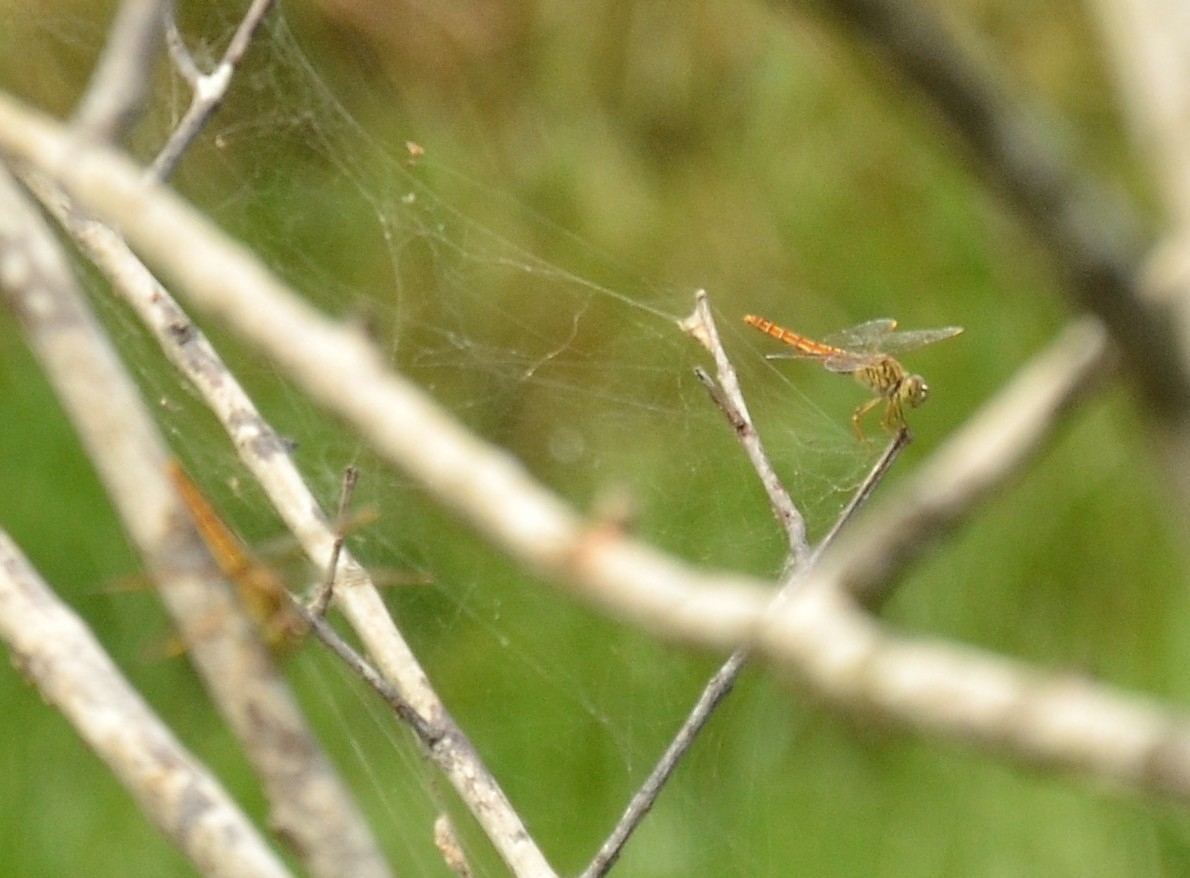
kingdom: Animalia
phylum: Arthropoda
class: Insecta
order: Odonata
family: Libellulidae
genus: Brachythemis
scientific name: Brachythemis contaminata
